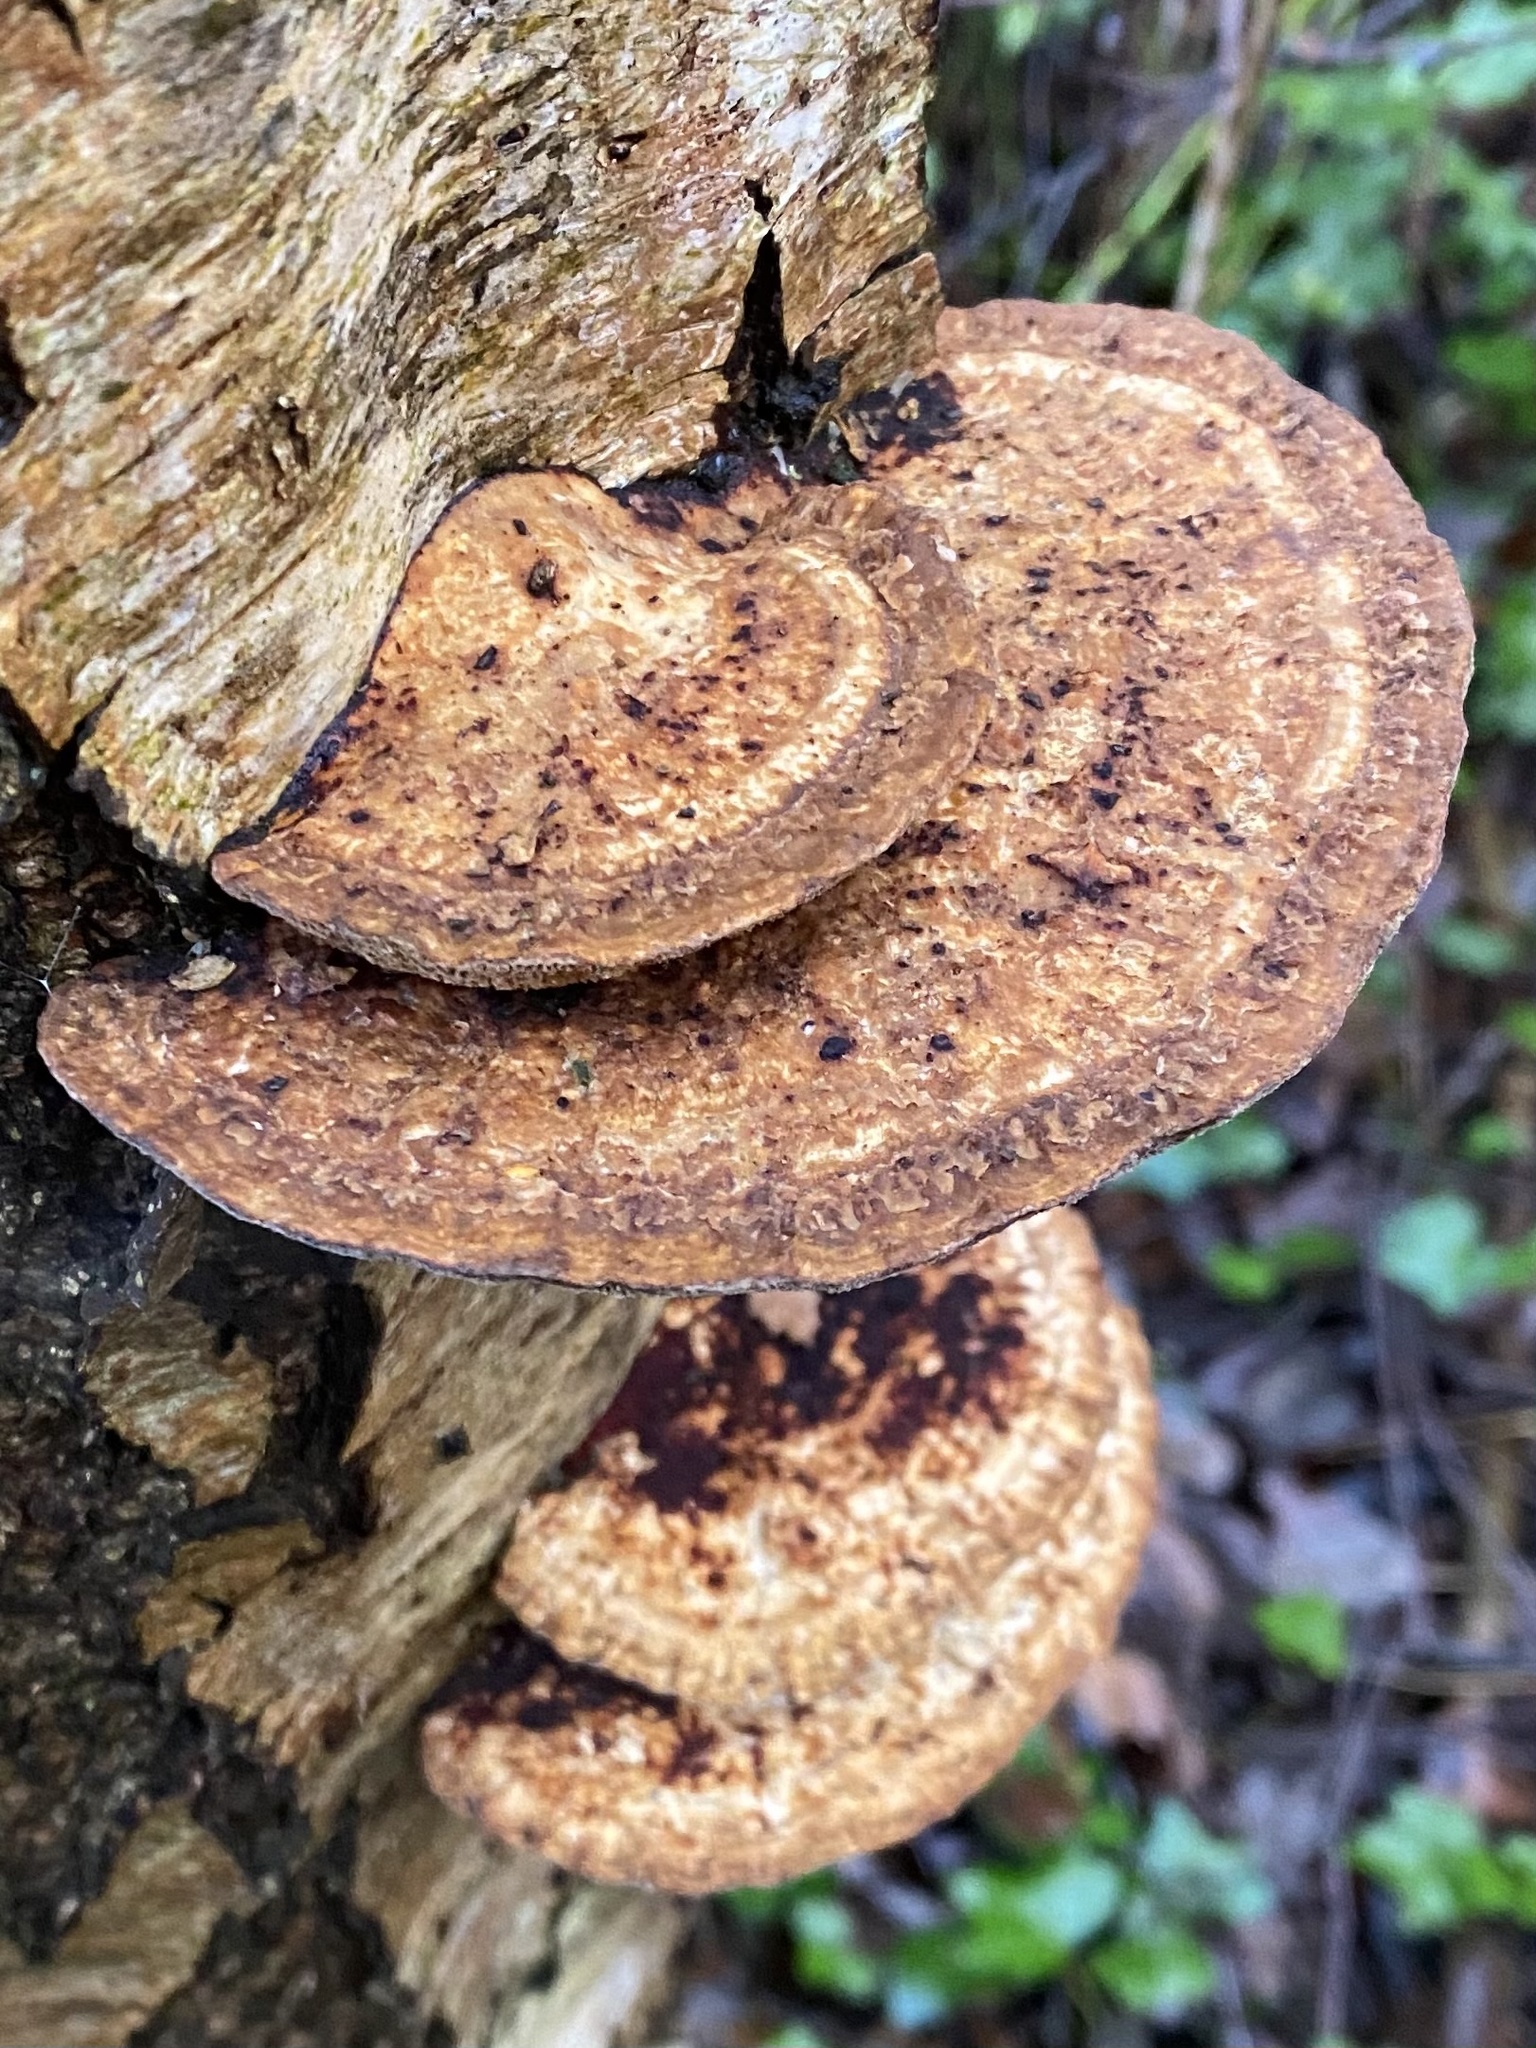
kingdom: Fungi
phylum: Basidiomycota
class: Agaricomycetes
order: Polyporales
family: Polyporaceae
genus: Daedaleopsis
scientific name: Daedaleopsis confragosa
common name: Blushing bracket
